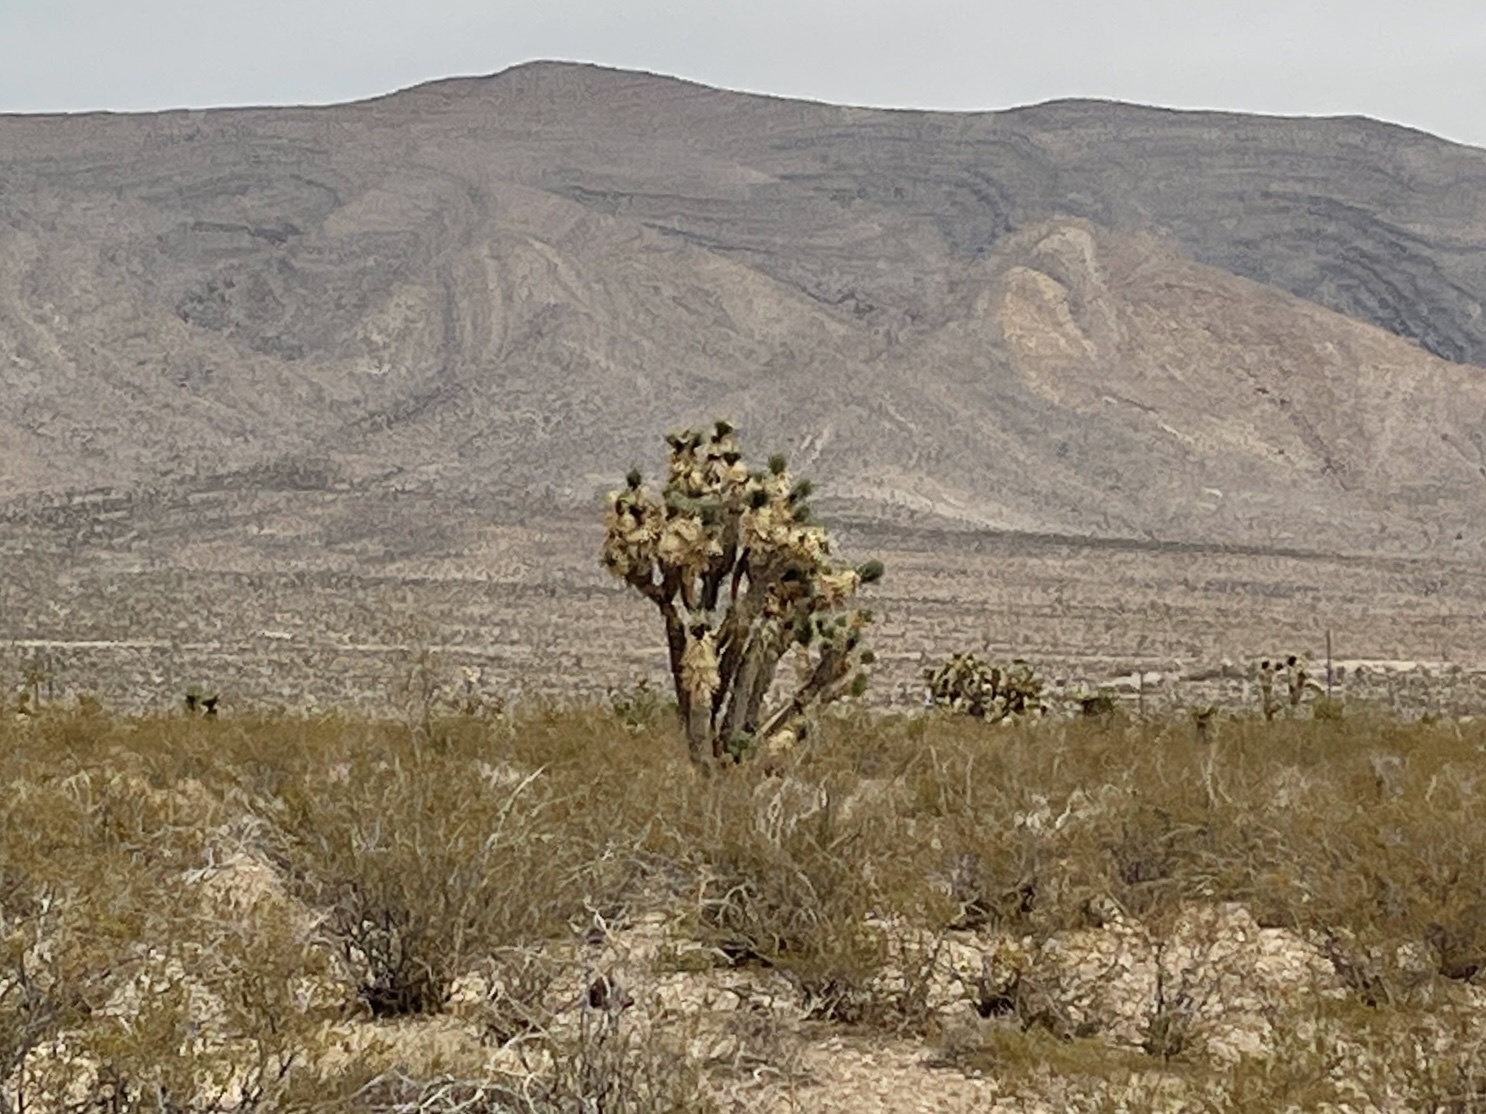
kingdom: Plantae
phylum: Tracheophyta
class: Liliopsida
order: Asparagales
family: Asparagaceae
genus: Yucca
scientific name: Yucca brevifolia
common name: Joshua tree
